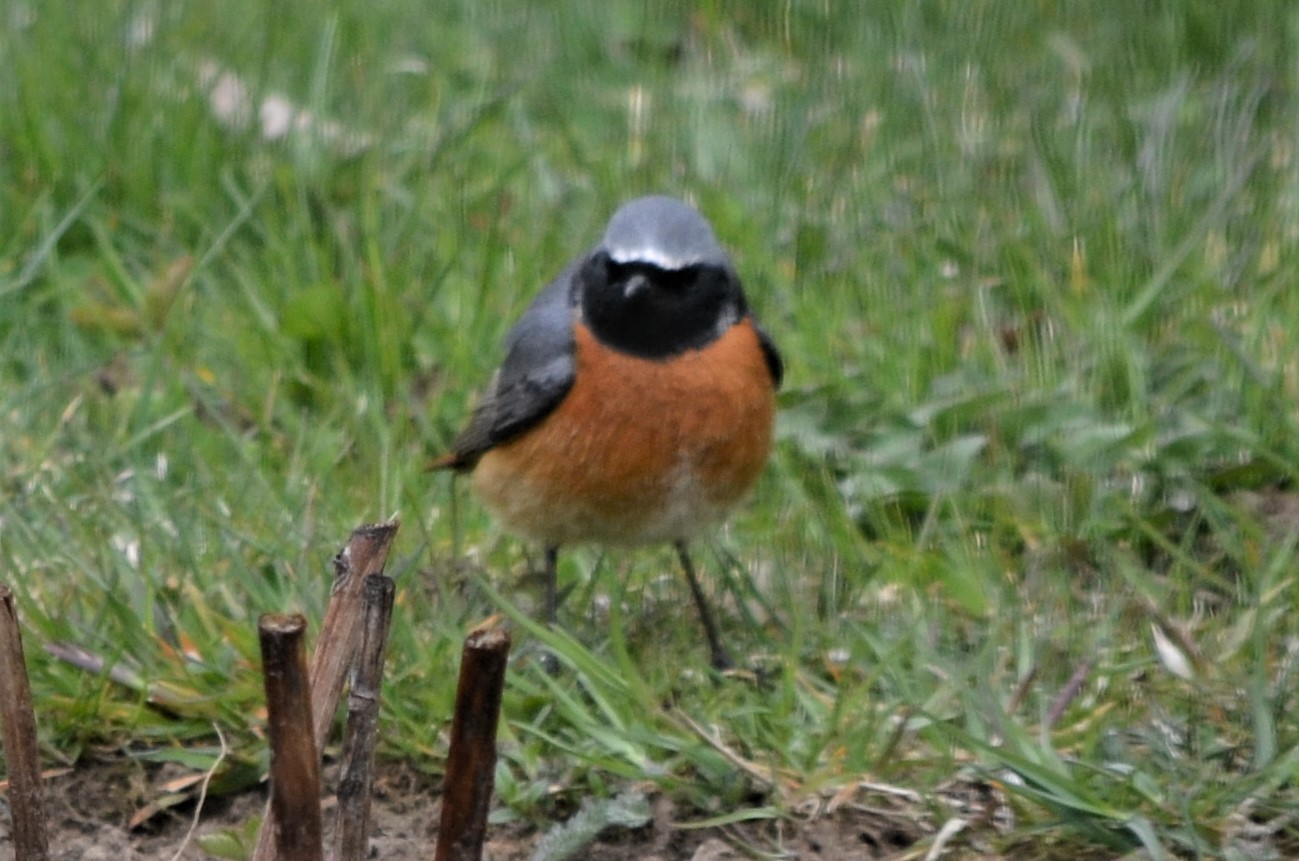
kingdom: Animalia
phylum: Chordata
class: Aves
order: Passeriformes
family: Muscicapidae
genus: Phoenicurus
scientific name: Phoenicurus phoenicurus
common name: Common redstart
